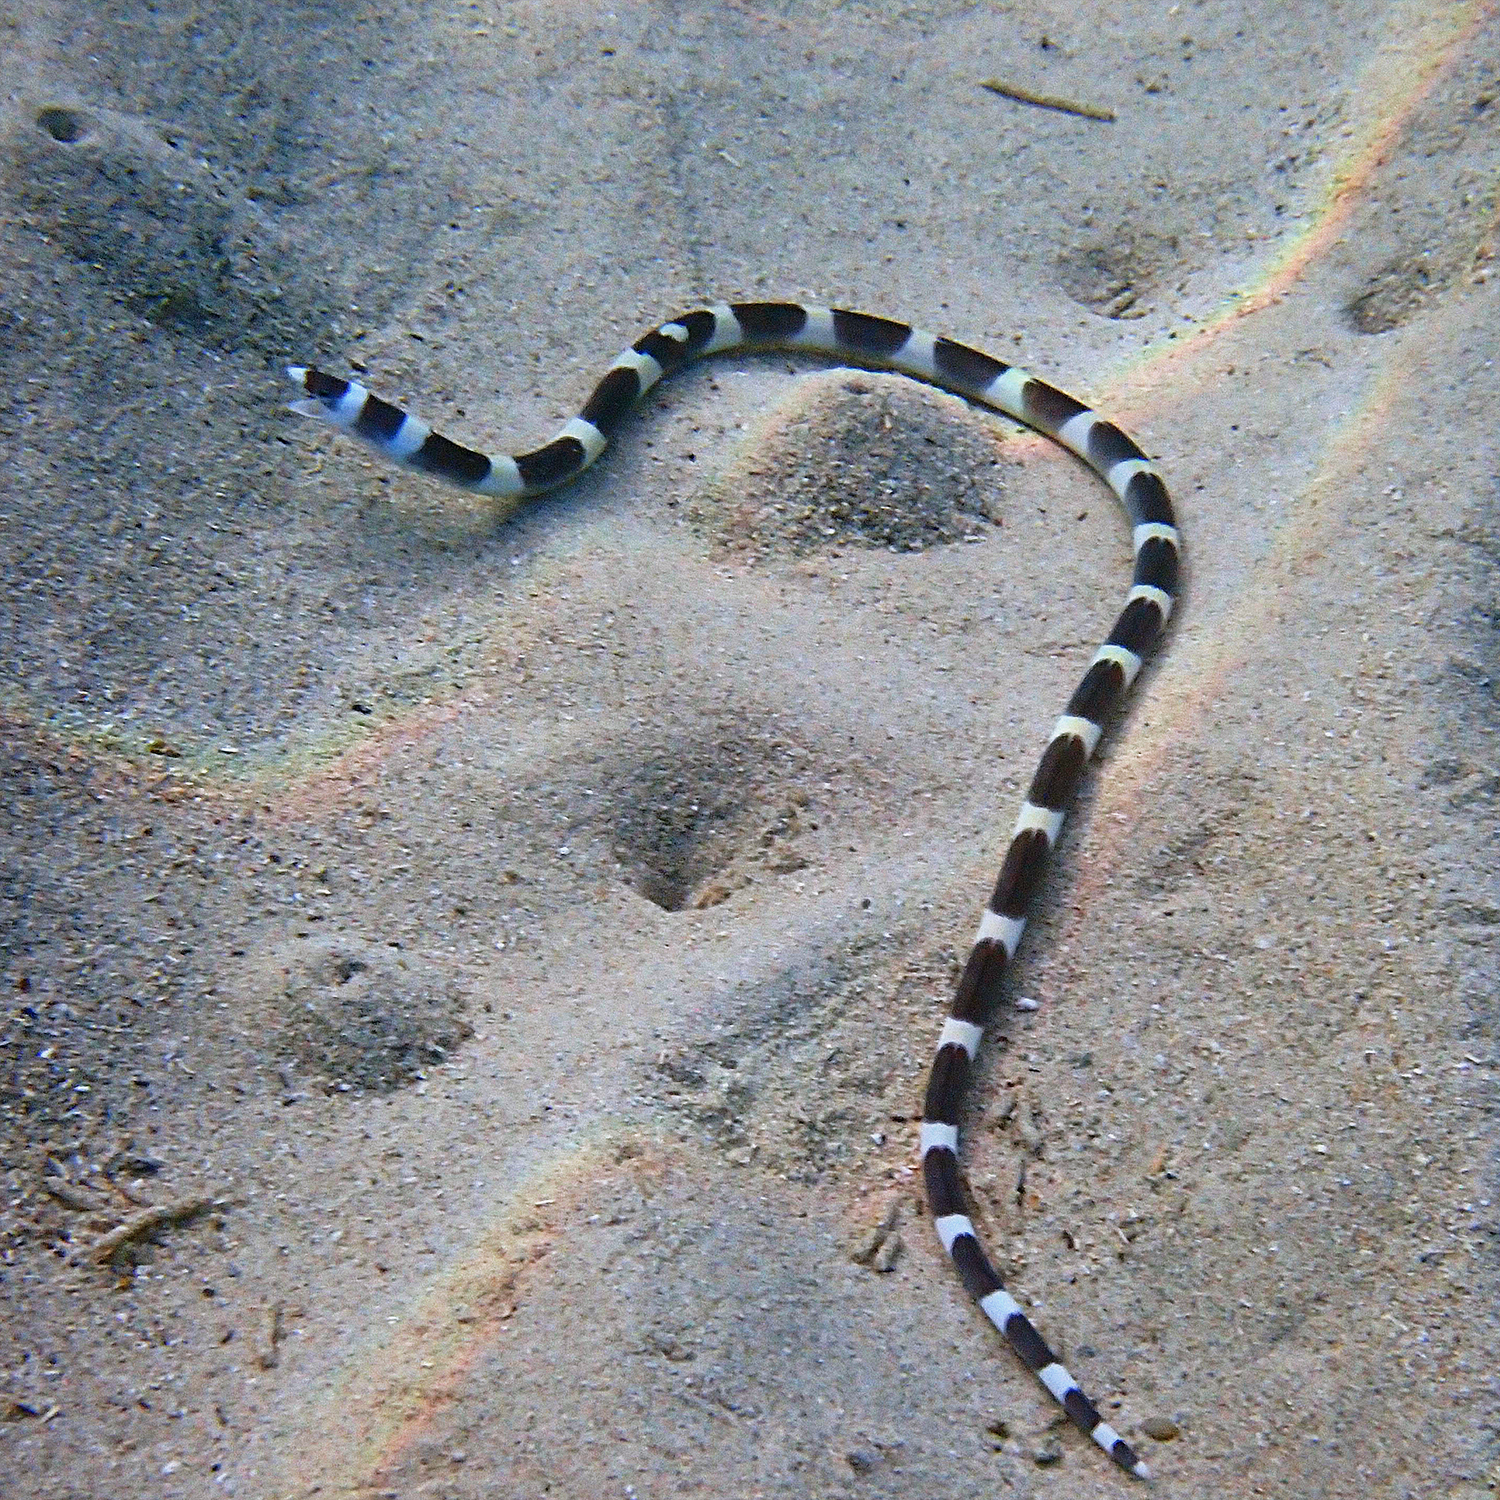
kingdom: Animalia
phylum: Chordata
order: Anguilliformes
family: Ophichthidae
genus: Leiuranus
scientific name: Leiuranus versicolor
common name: Convict snake eel
